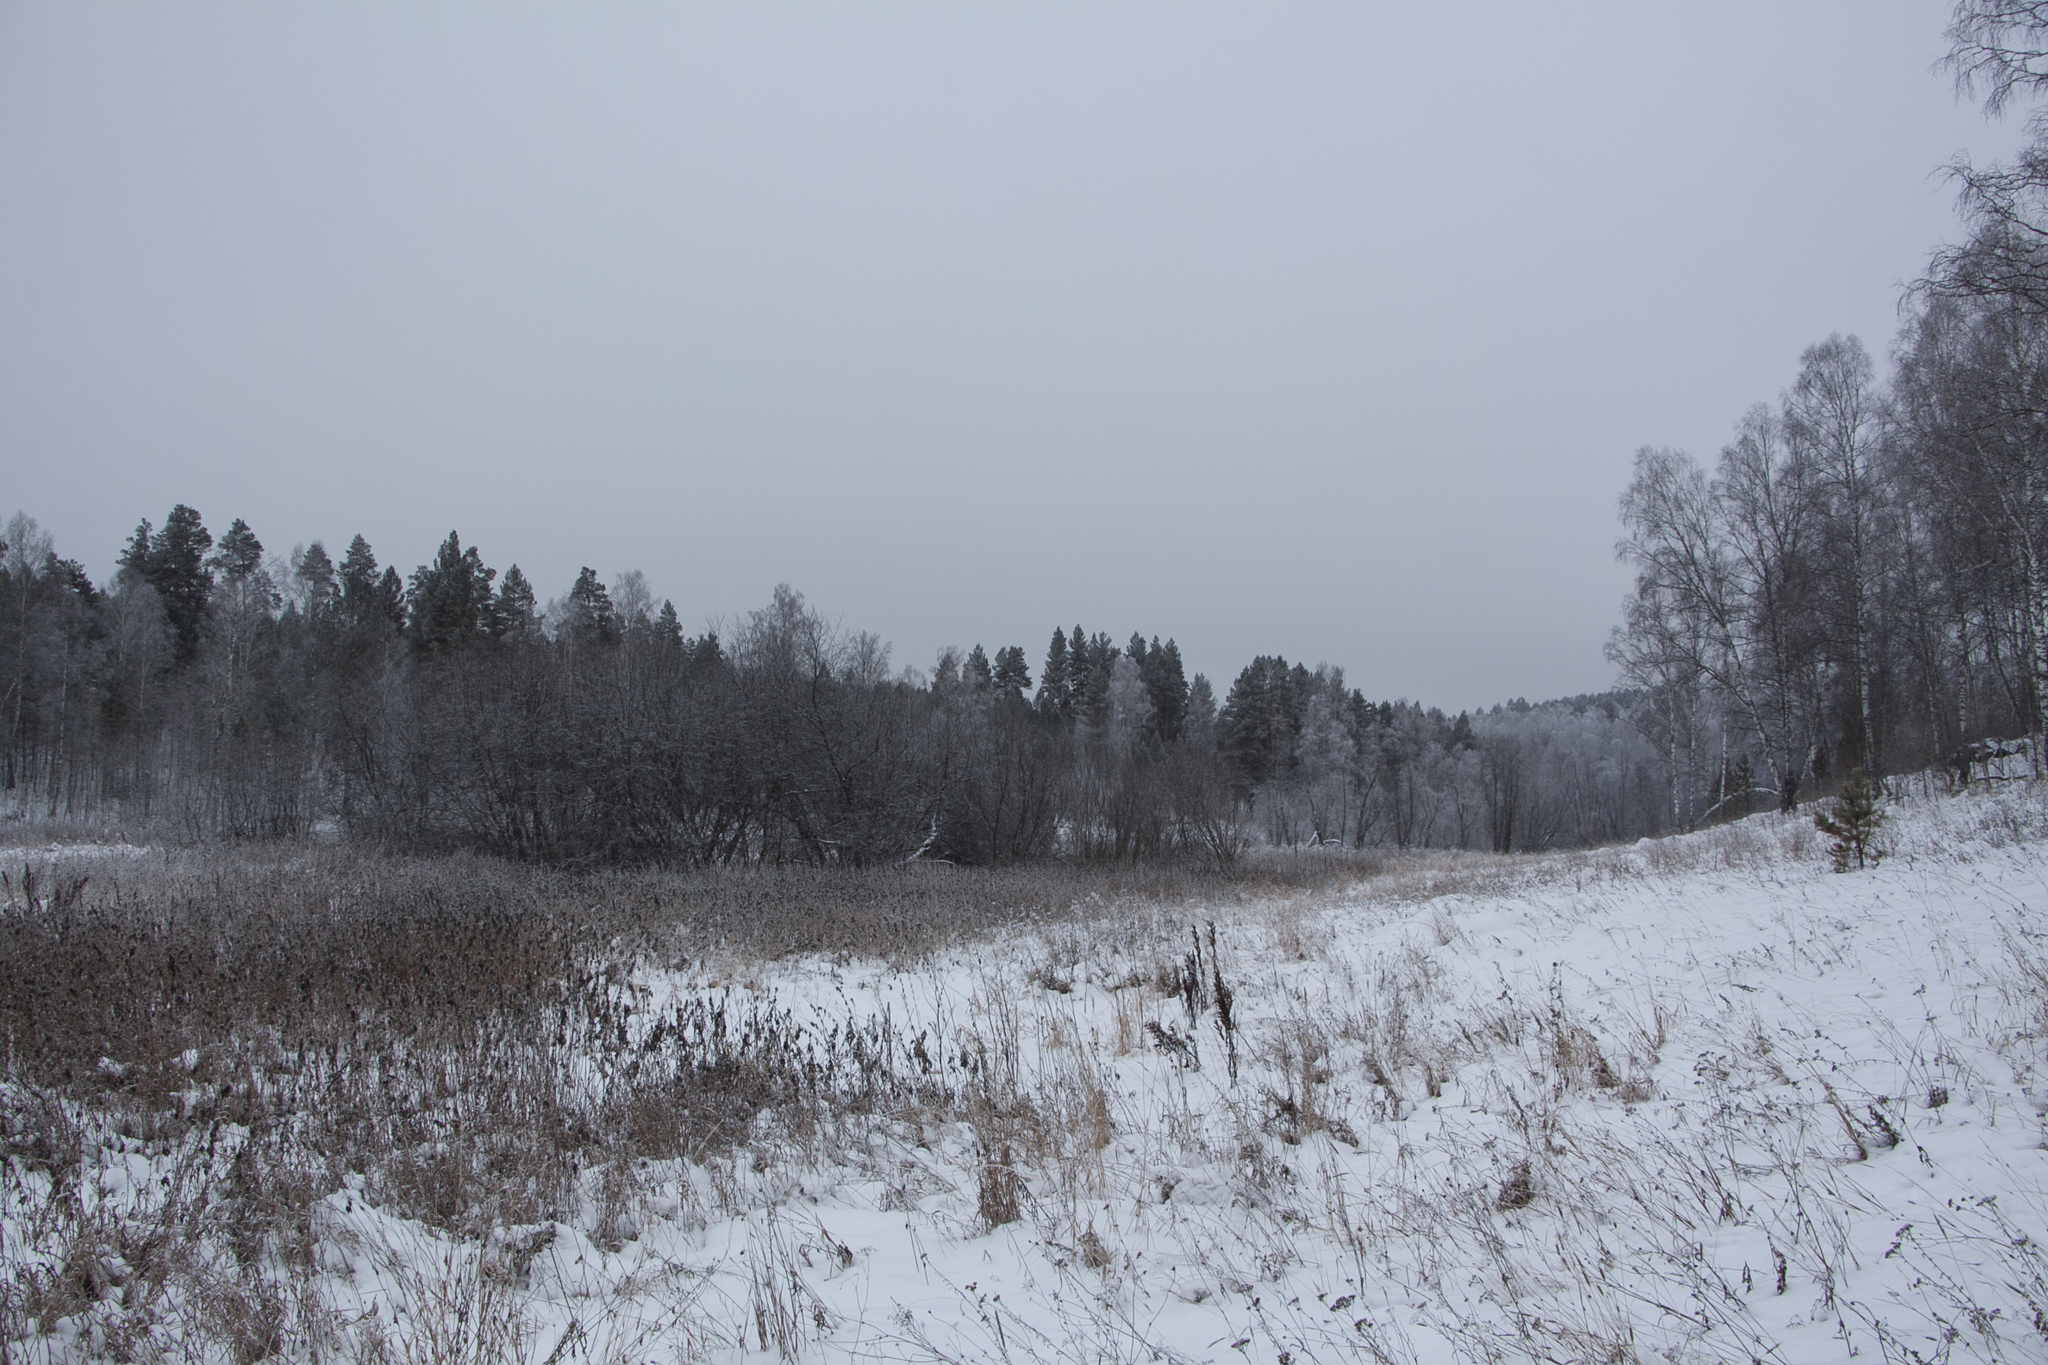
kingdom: Plantae
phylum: Tracheophyta
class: Magnoliopsida
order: Fagales
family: Betulaceae
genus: Betula
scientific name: Betula pendula
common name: Silver birch
